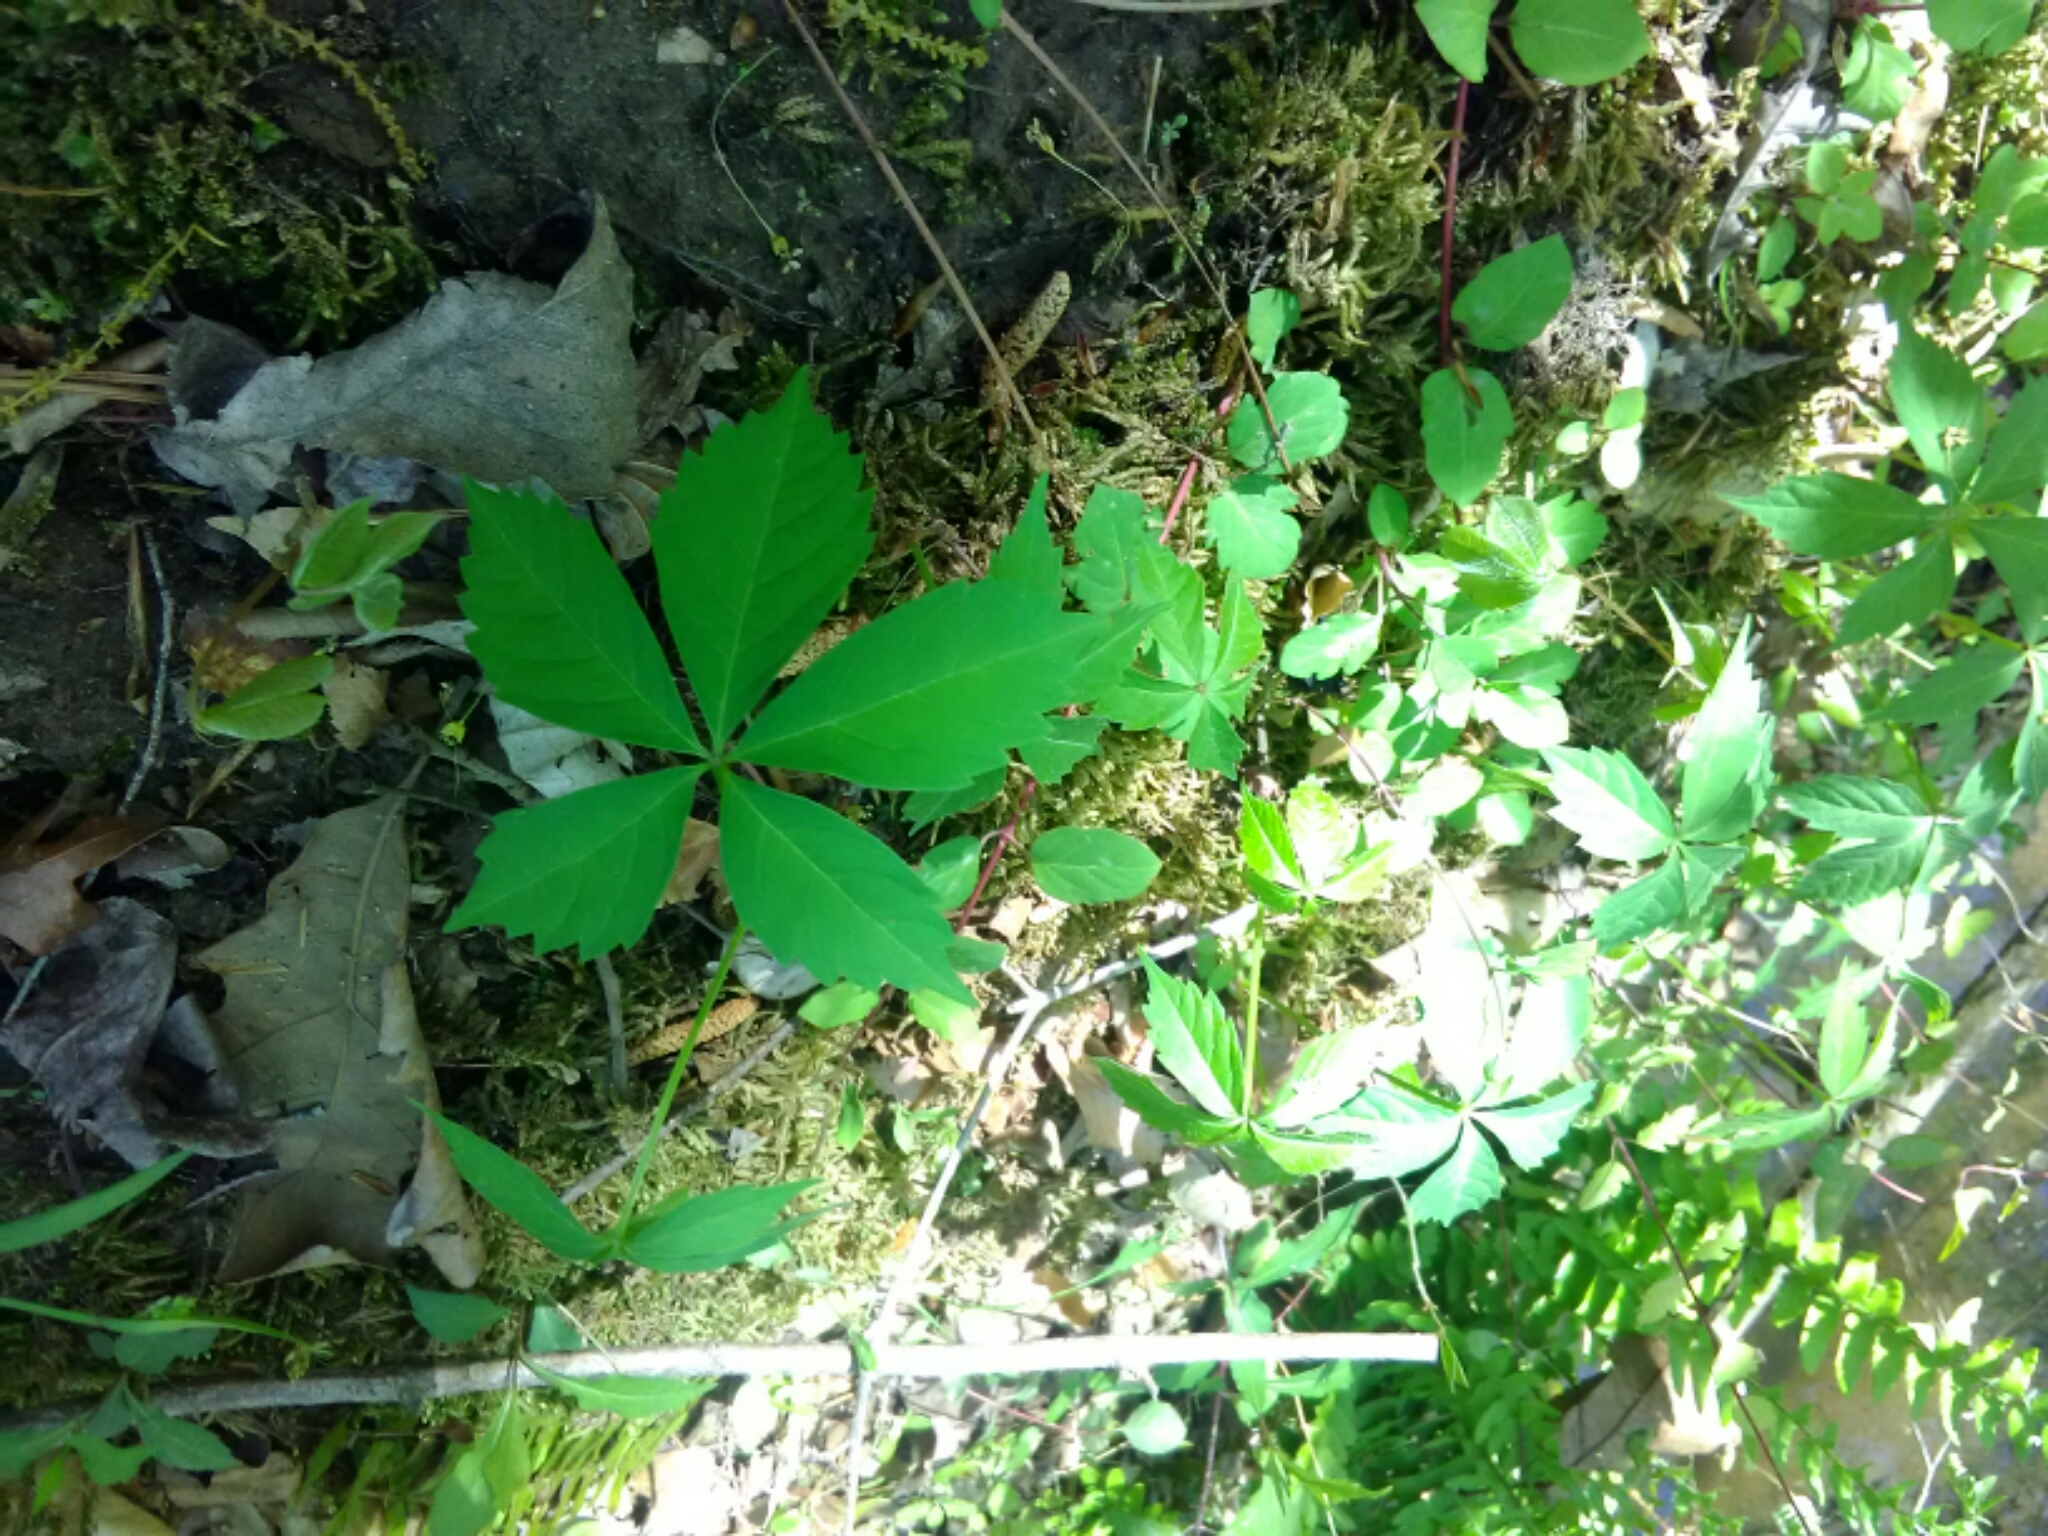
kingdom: Plantae
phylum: Tracheophyta
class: Magnoliopsida
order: Vitales
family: Vitaceae
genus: Parthenocissus
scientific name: Parthenocissus quinquefolia
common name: Virginia-creeper
